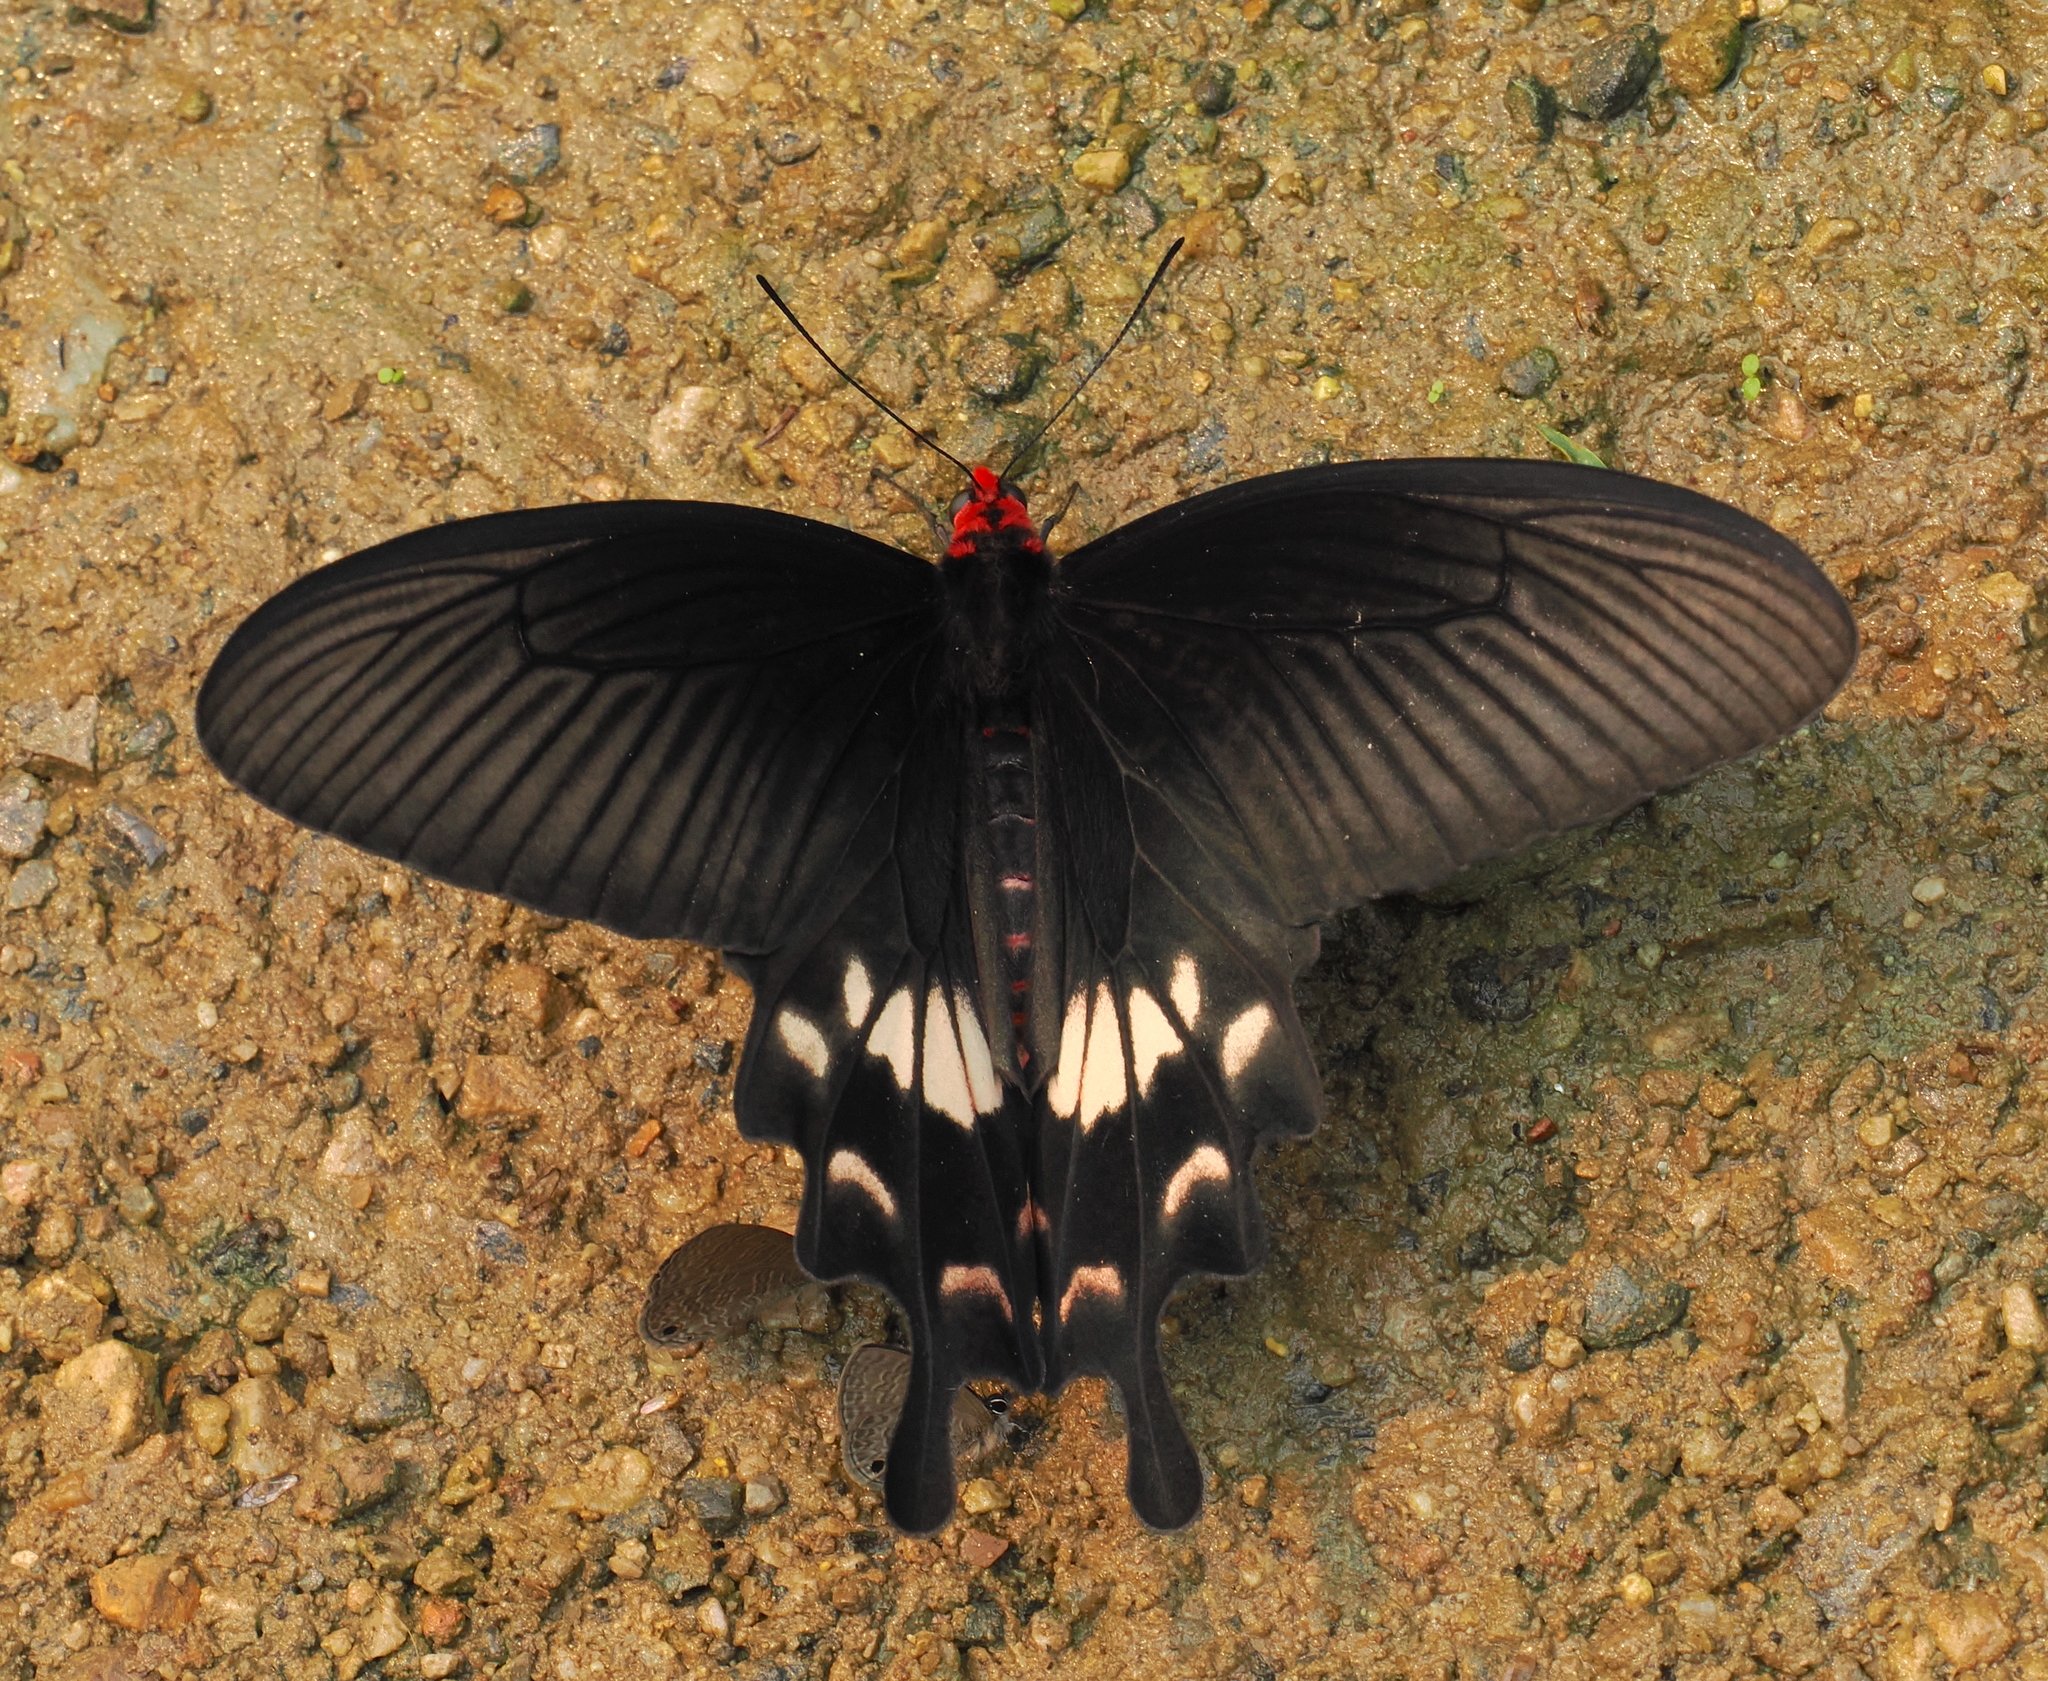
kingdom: Animalia
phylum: Arthropoda
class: Insecta
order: Lepidoptera
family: Papilionidae
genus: Pachliopta
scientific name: Pachliopta aristolochiae
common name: Common rose
